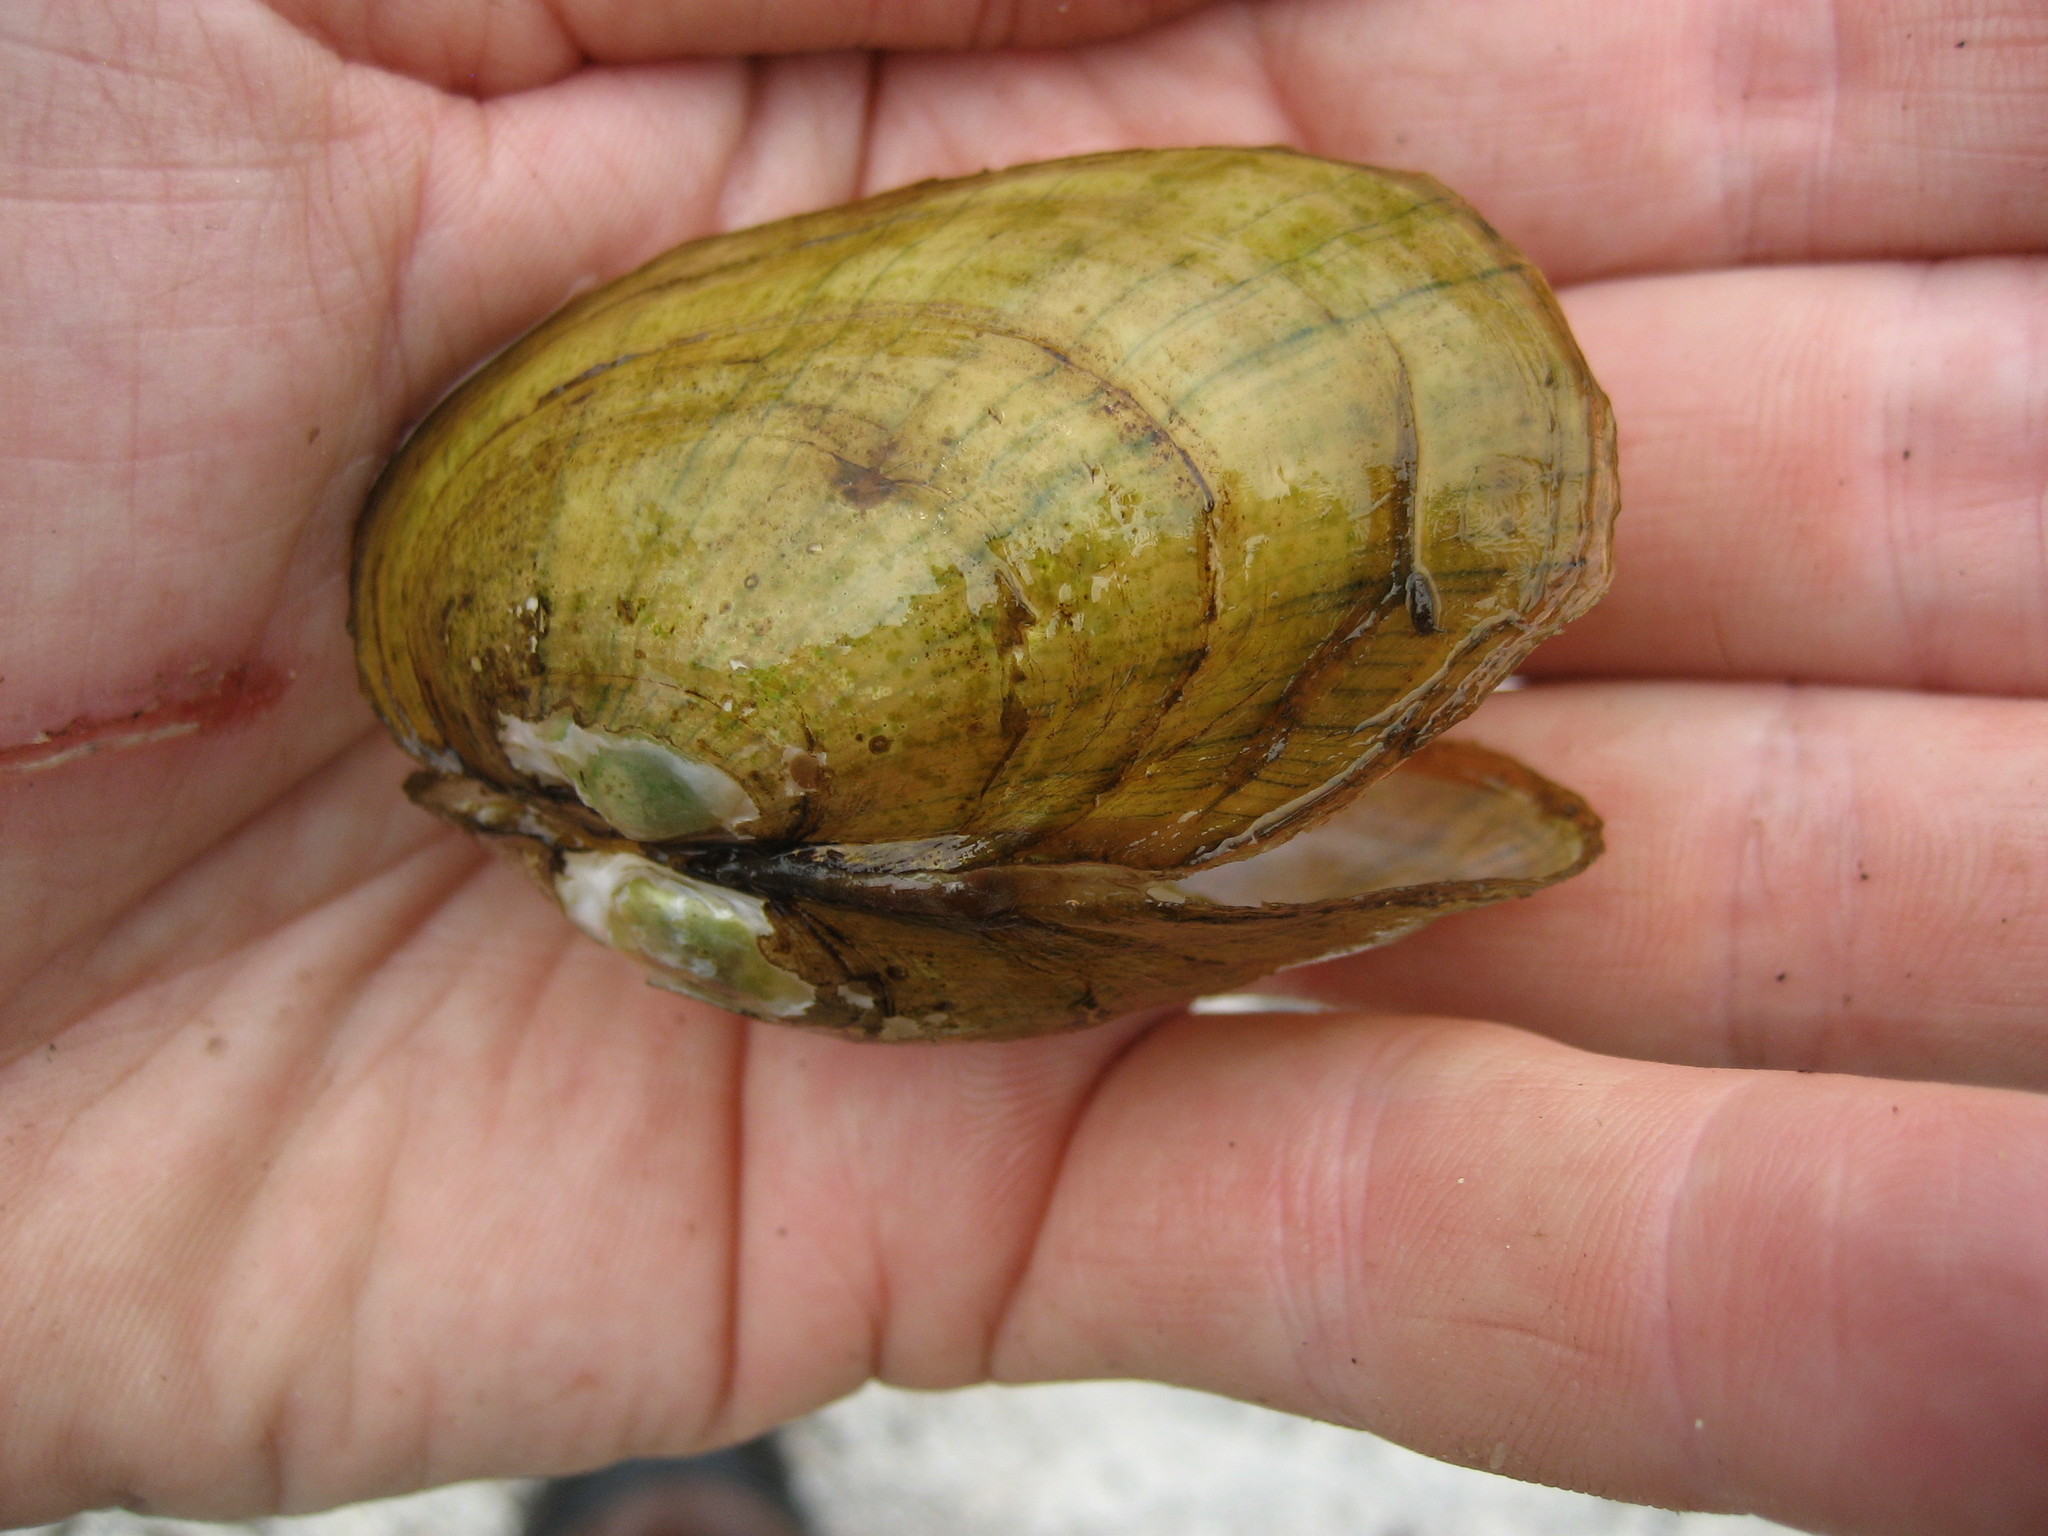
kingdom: Animalia
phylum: Mollusca
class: Bivalvia
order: Unionida
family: Unionidae
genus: Lampsilis
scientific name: Lampsilis siliquoidea
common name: Fatmucket
